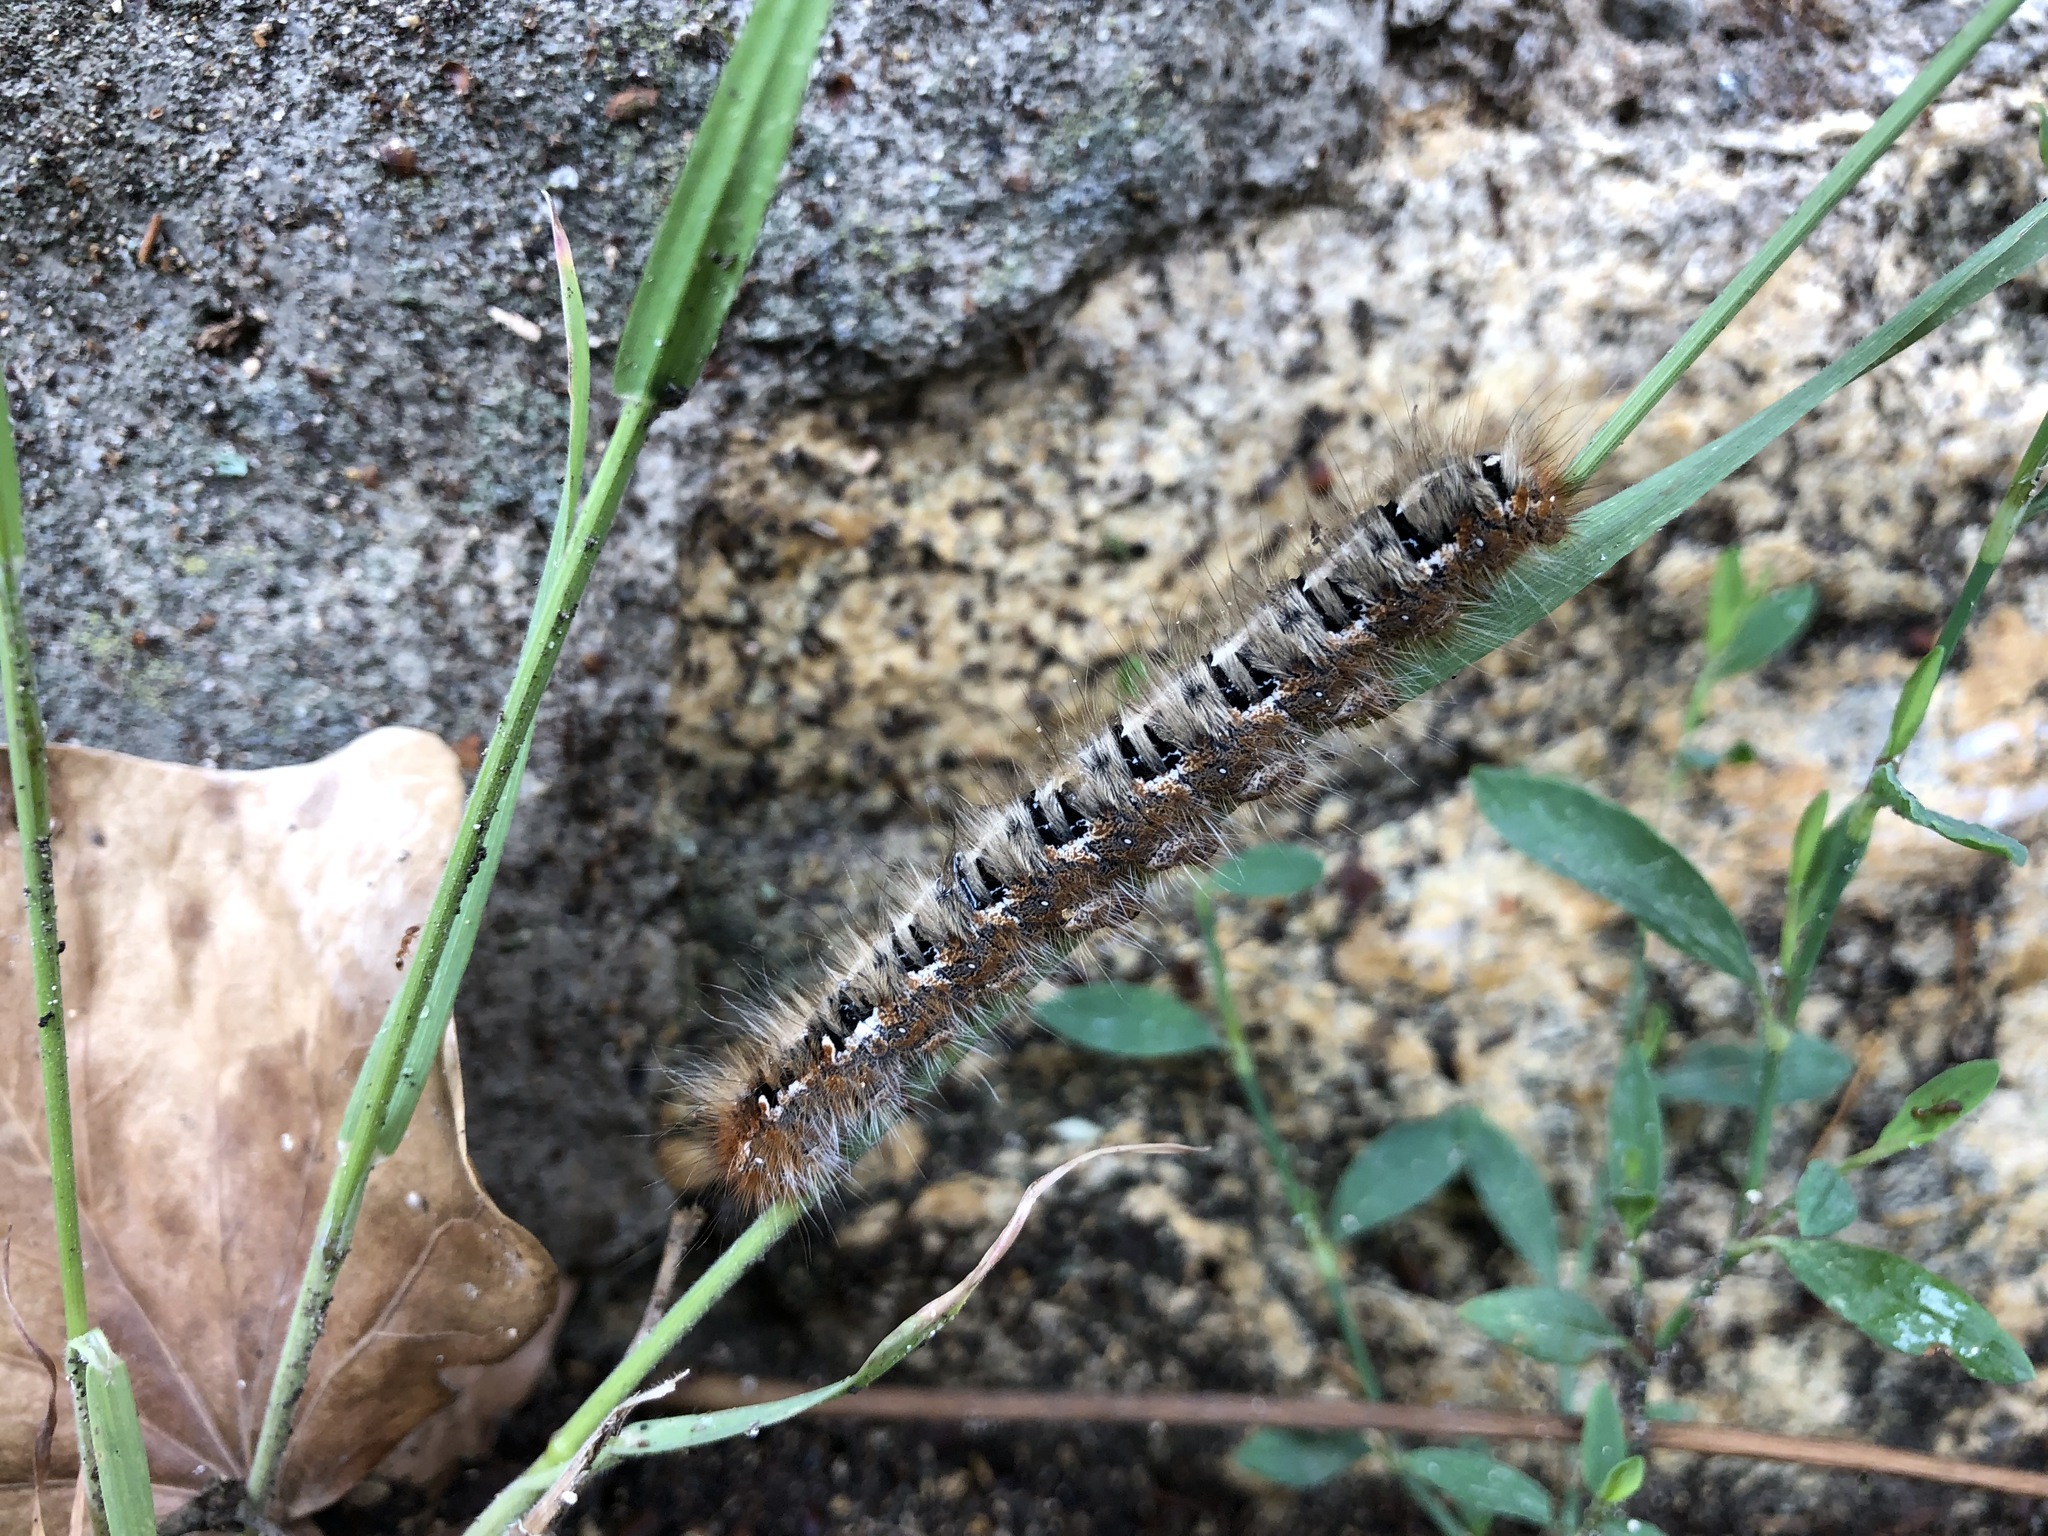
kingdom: Animalia
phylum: Arthropoda
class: Insecta
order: Lepidoptera
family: Lasiocampidae
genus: Lasiocampa
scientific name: Lasiocampa quercus
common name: Oak eggar
